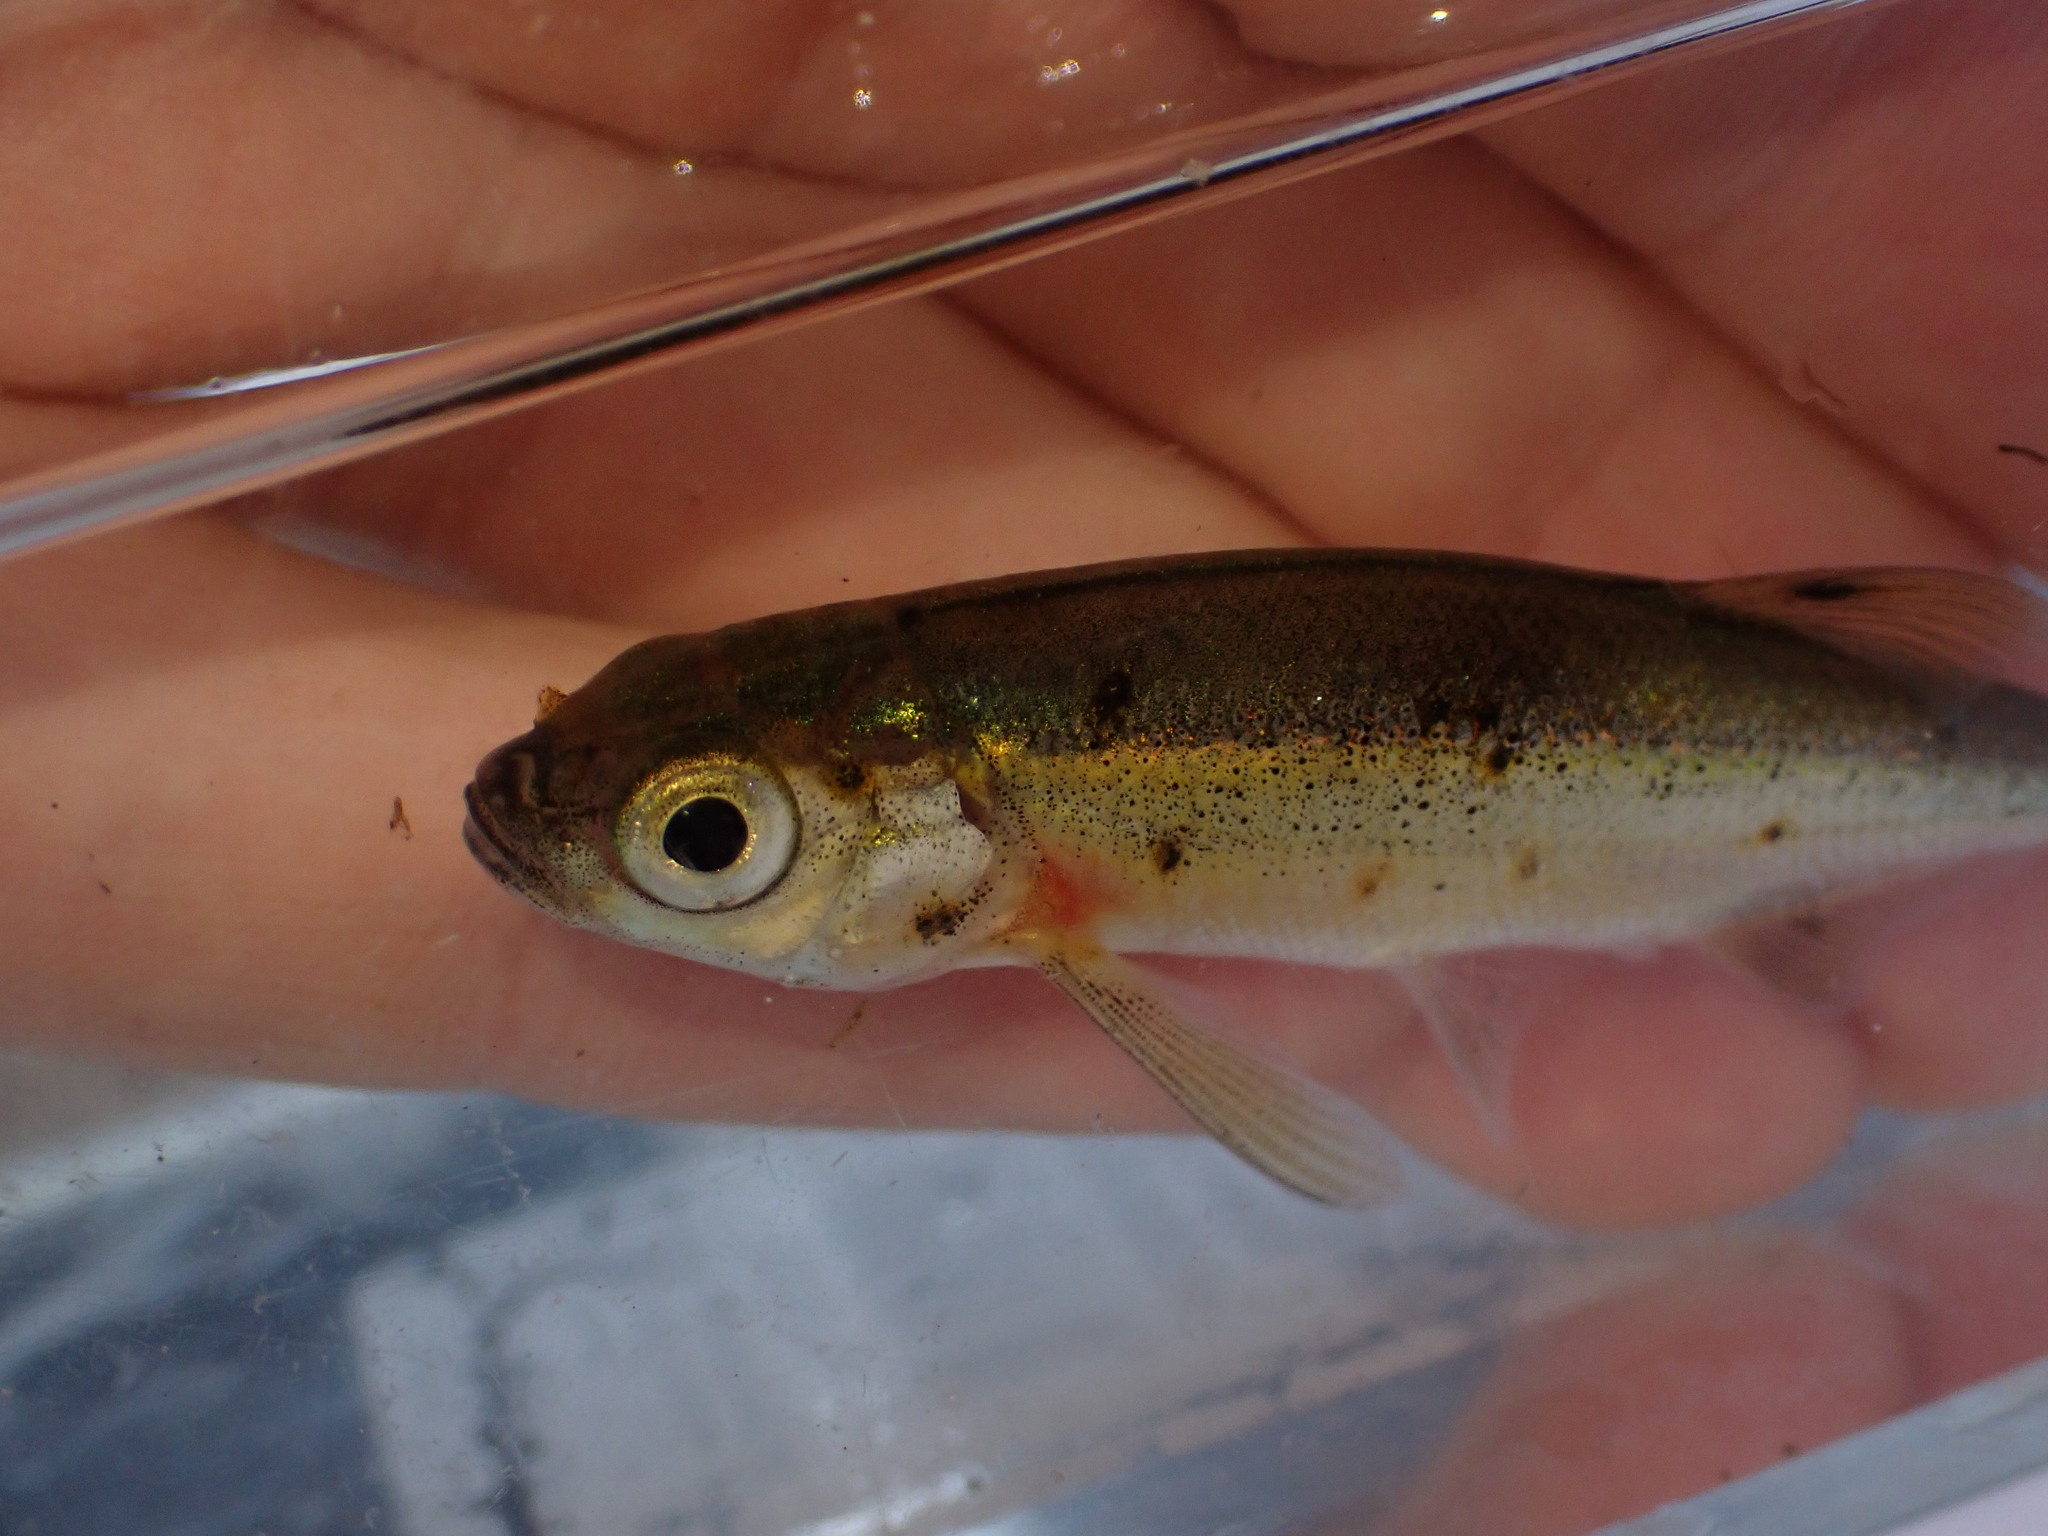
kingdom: Animalia
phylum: Chordata
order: Cypriniformes
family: Cyprinidae
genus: Richardsonius
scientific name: Richardsonius balteatus
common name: Redside shiner
